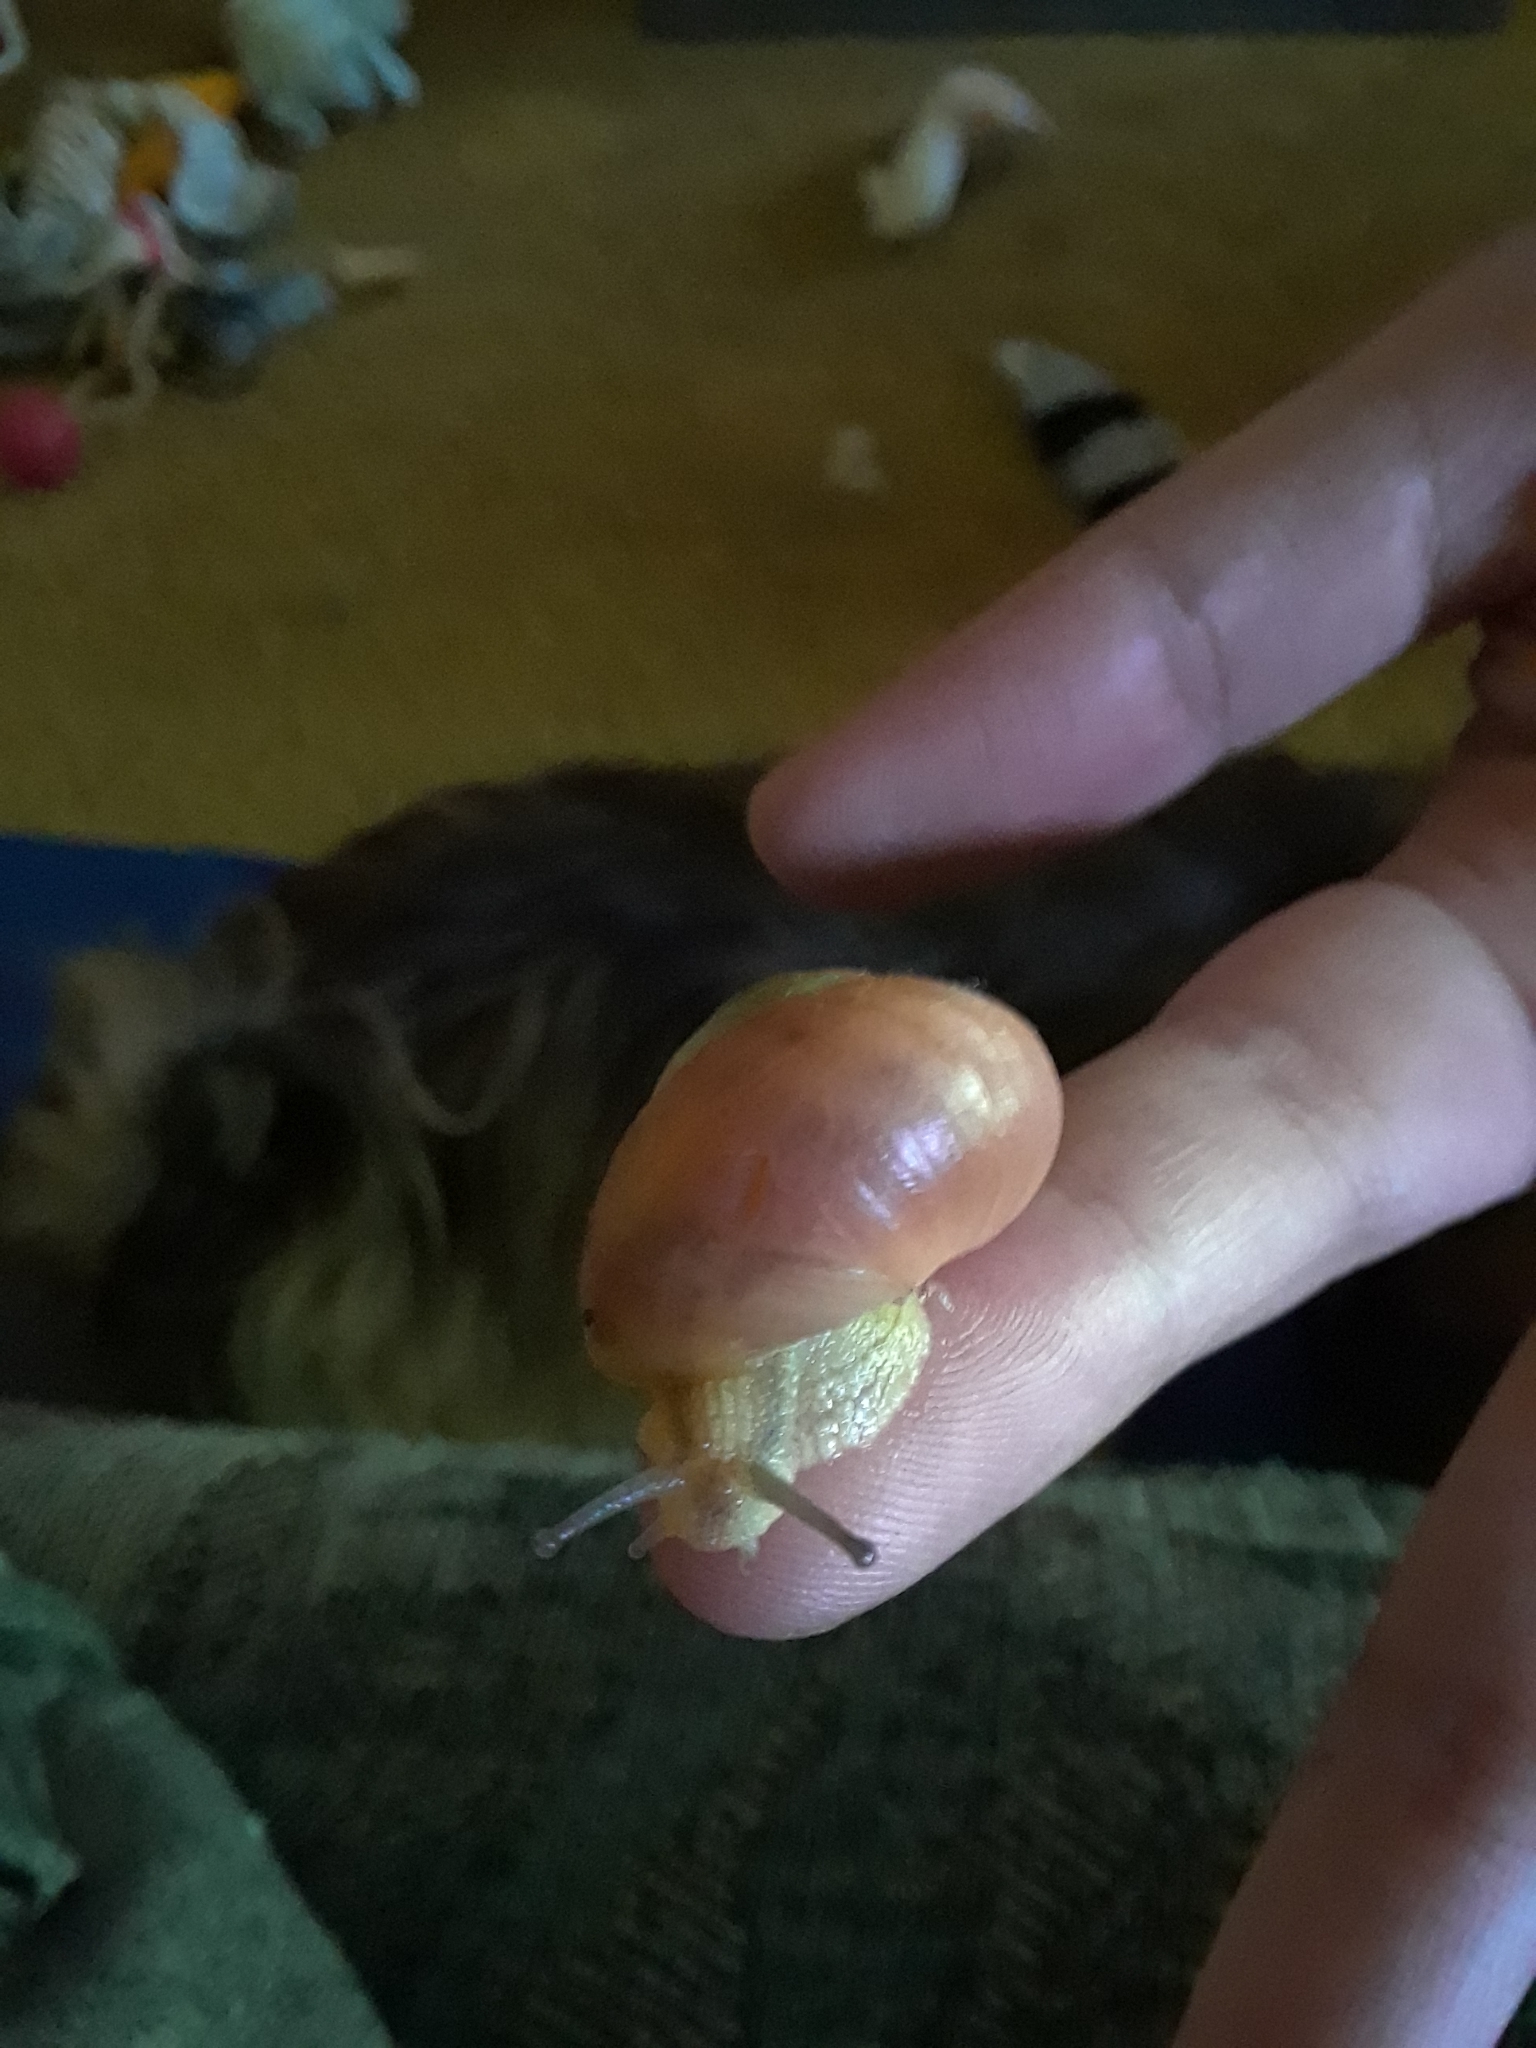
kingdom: Animalia
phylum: Mollusca
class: Gastropoda
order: Stylommatophora
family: Polygyridae
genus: Neohelix
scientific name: Neohelix albolabris
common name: Eastern whitelip
